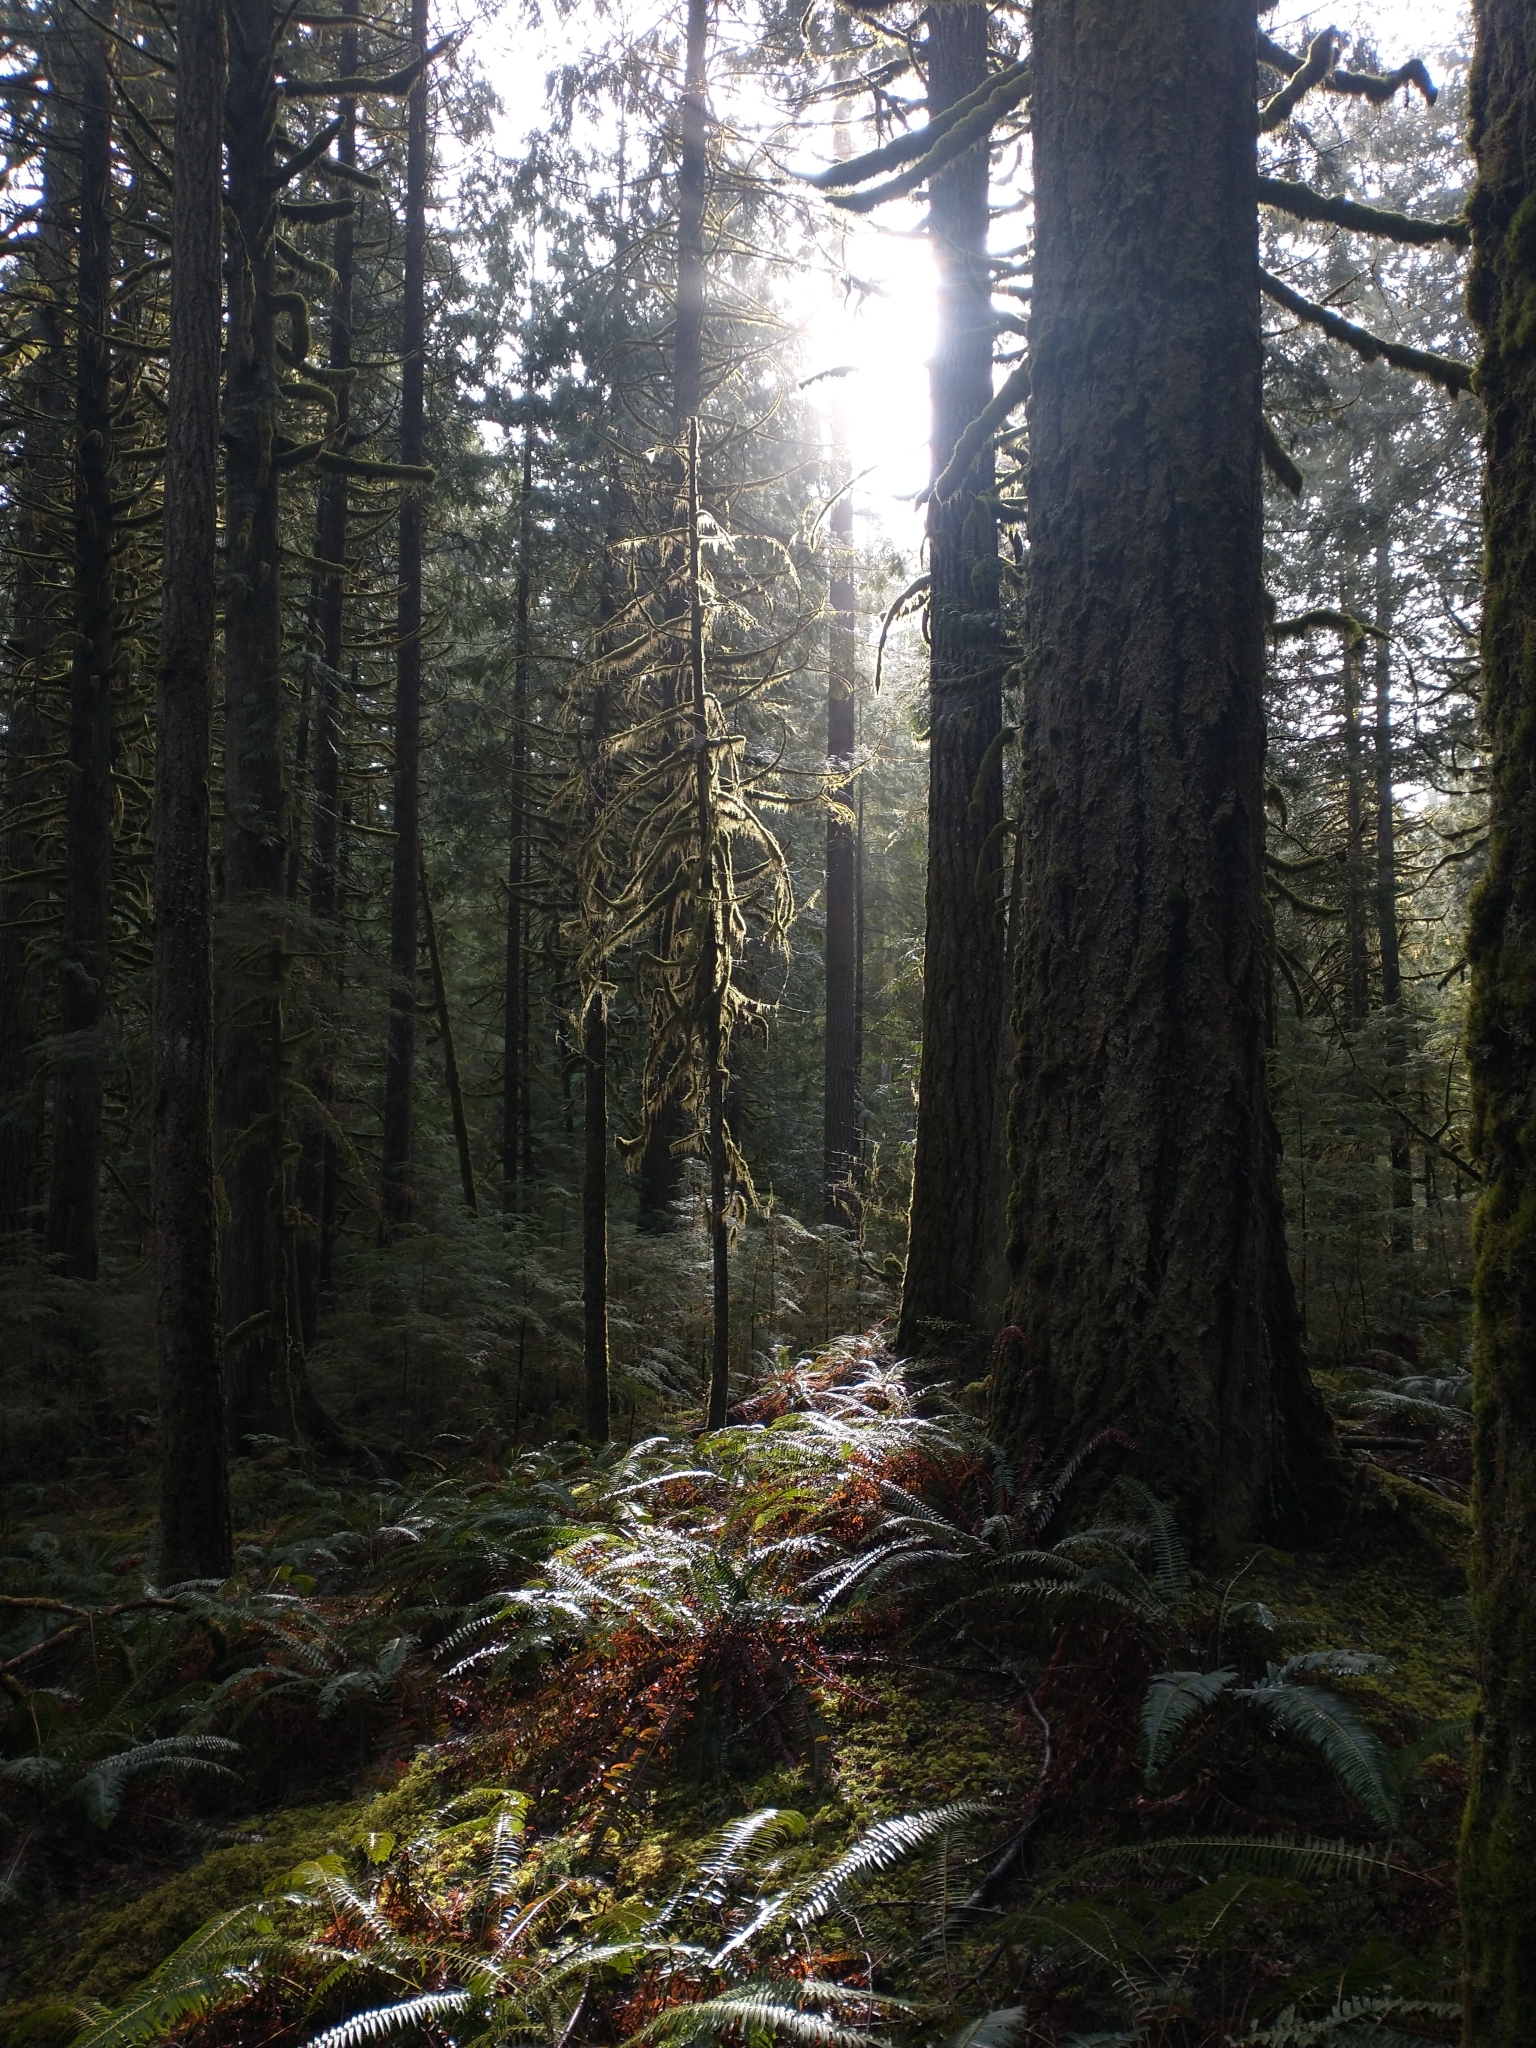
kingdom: Plantae
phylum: Tracheophyta
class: Pinopsida
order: Pinales
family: Pinaceae
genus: Pseudotsuga
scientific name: Pseudotsuga menziesii
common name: Douglas fir
